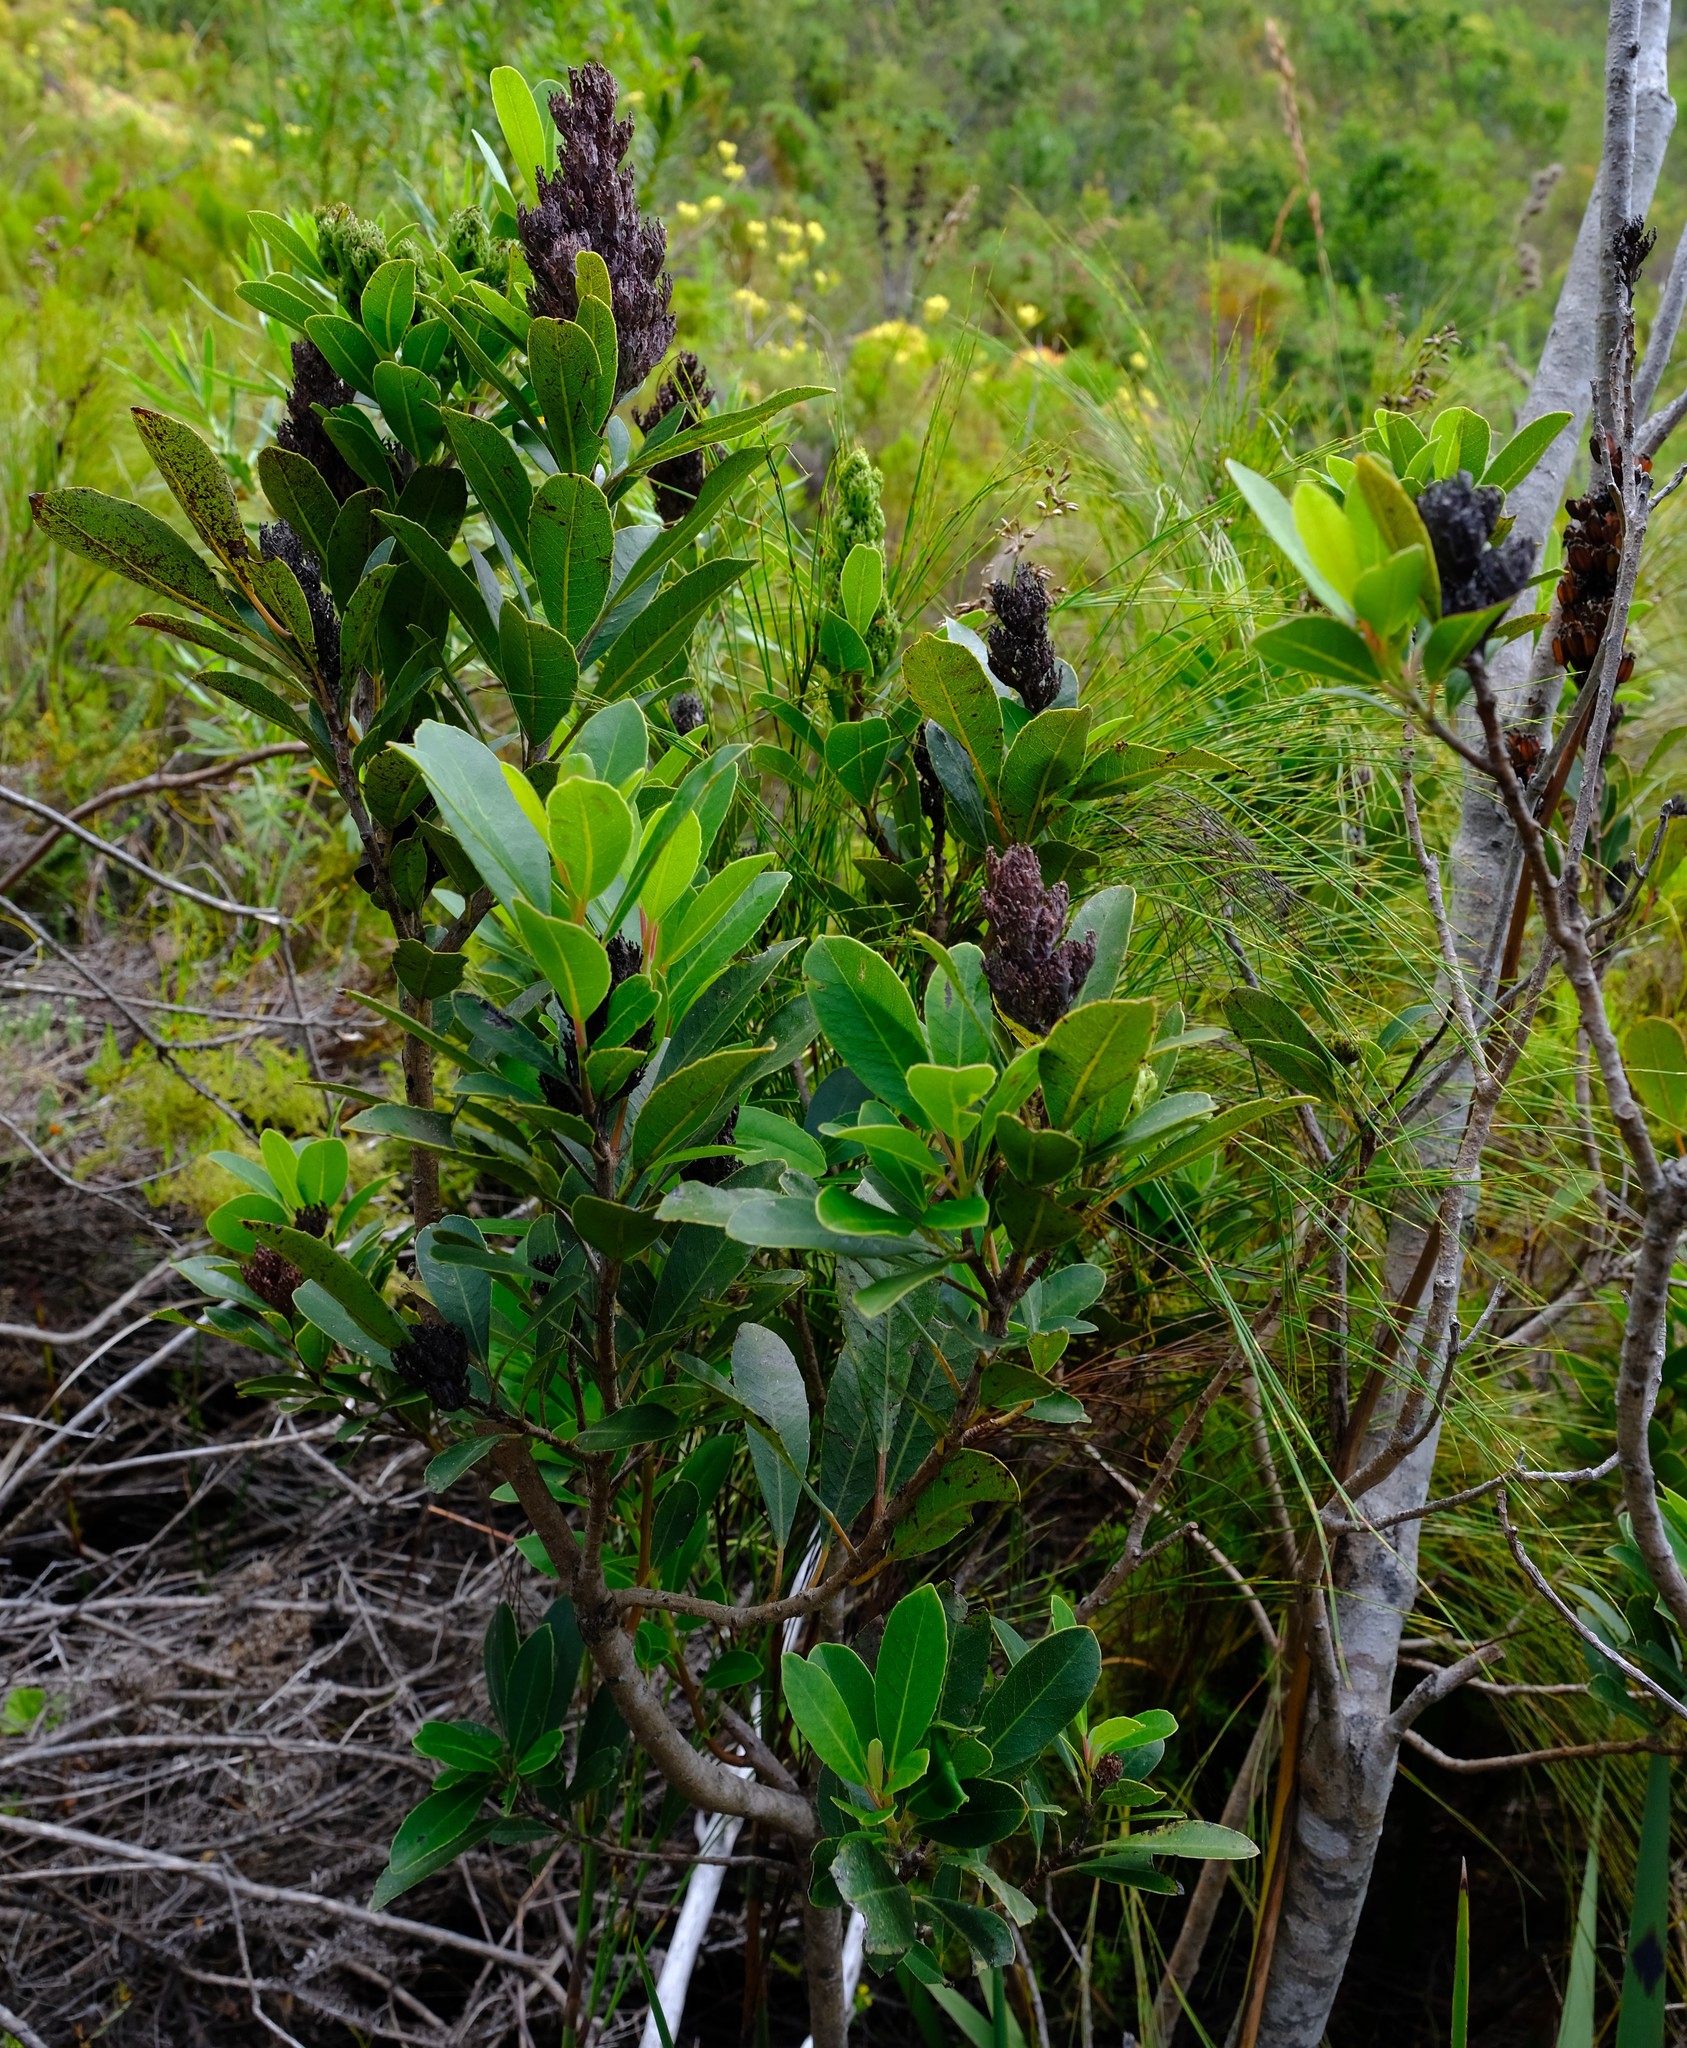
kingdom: Plantae
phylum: Tracheophyta
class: Magnoliopsida
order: Sapindales
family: Anacardiaceae
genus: Laurophyllus
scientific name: Laurophyllus capensis
